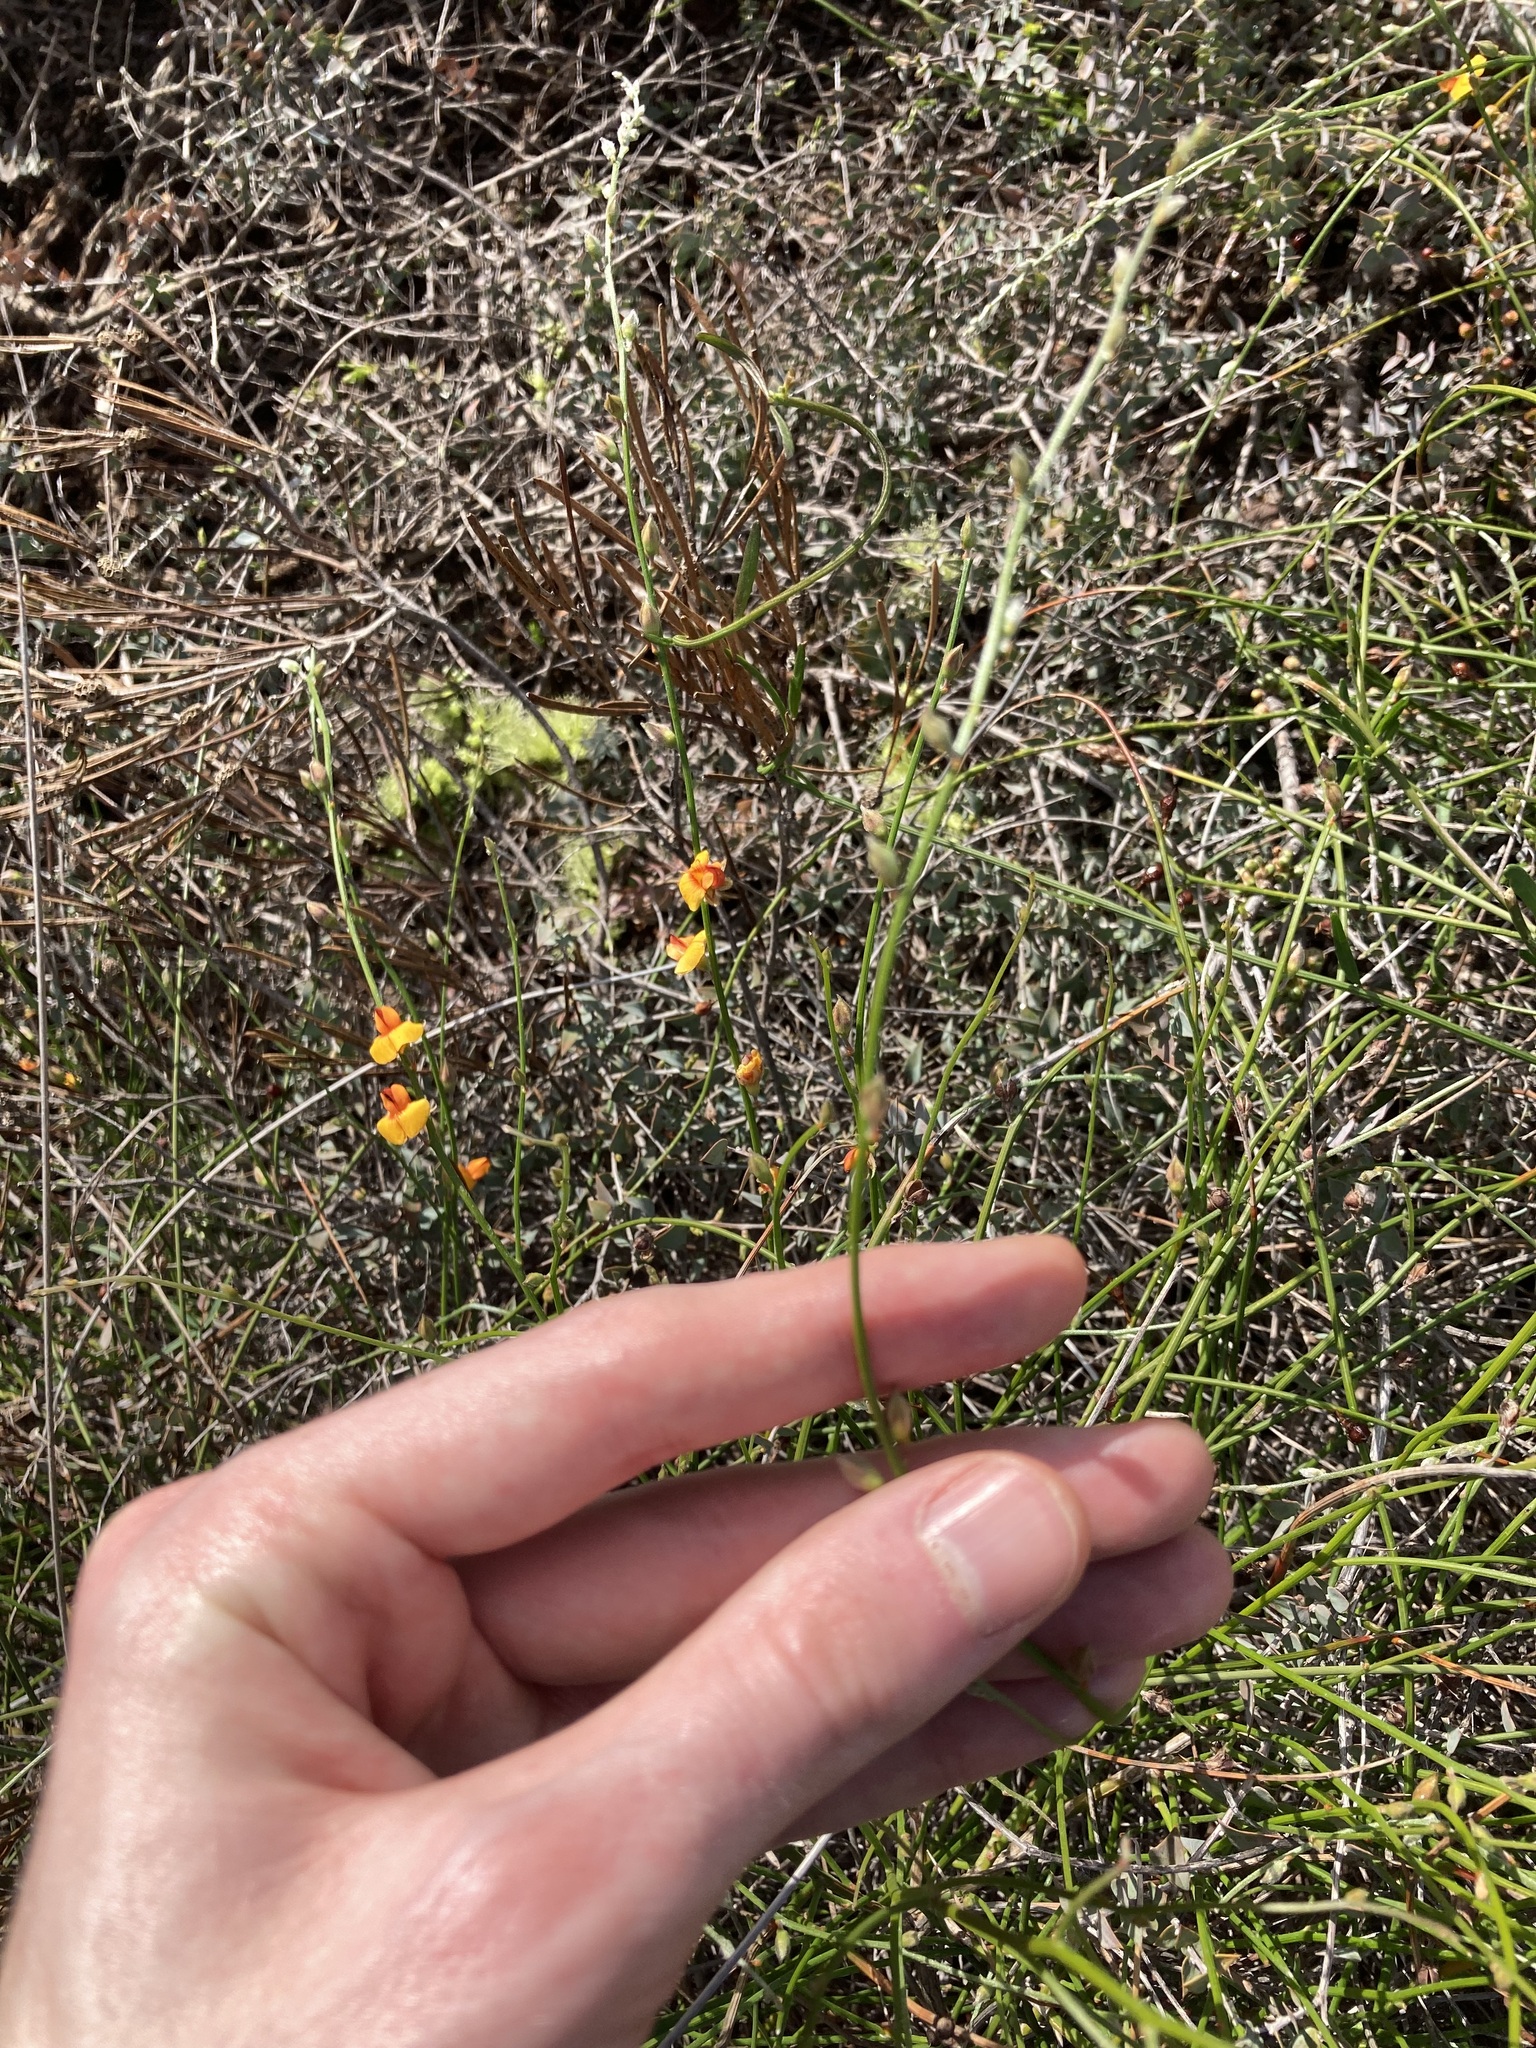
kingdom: Plantae
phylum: Tracheophyta
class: Magnoliopsida
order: Fabales
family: Fabaceae
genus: Jacksonia
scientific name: Jacksonia arenicola
